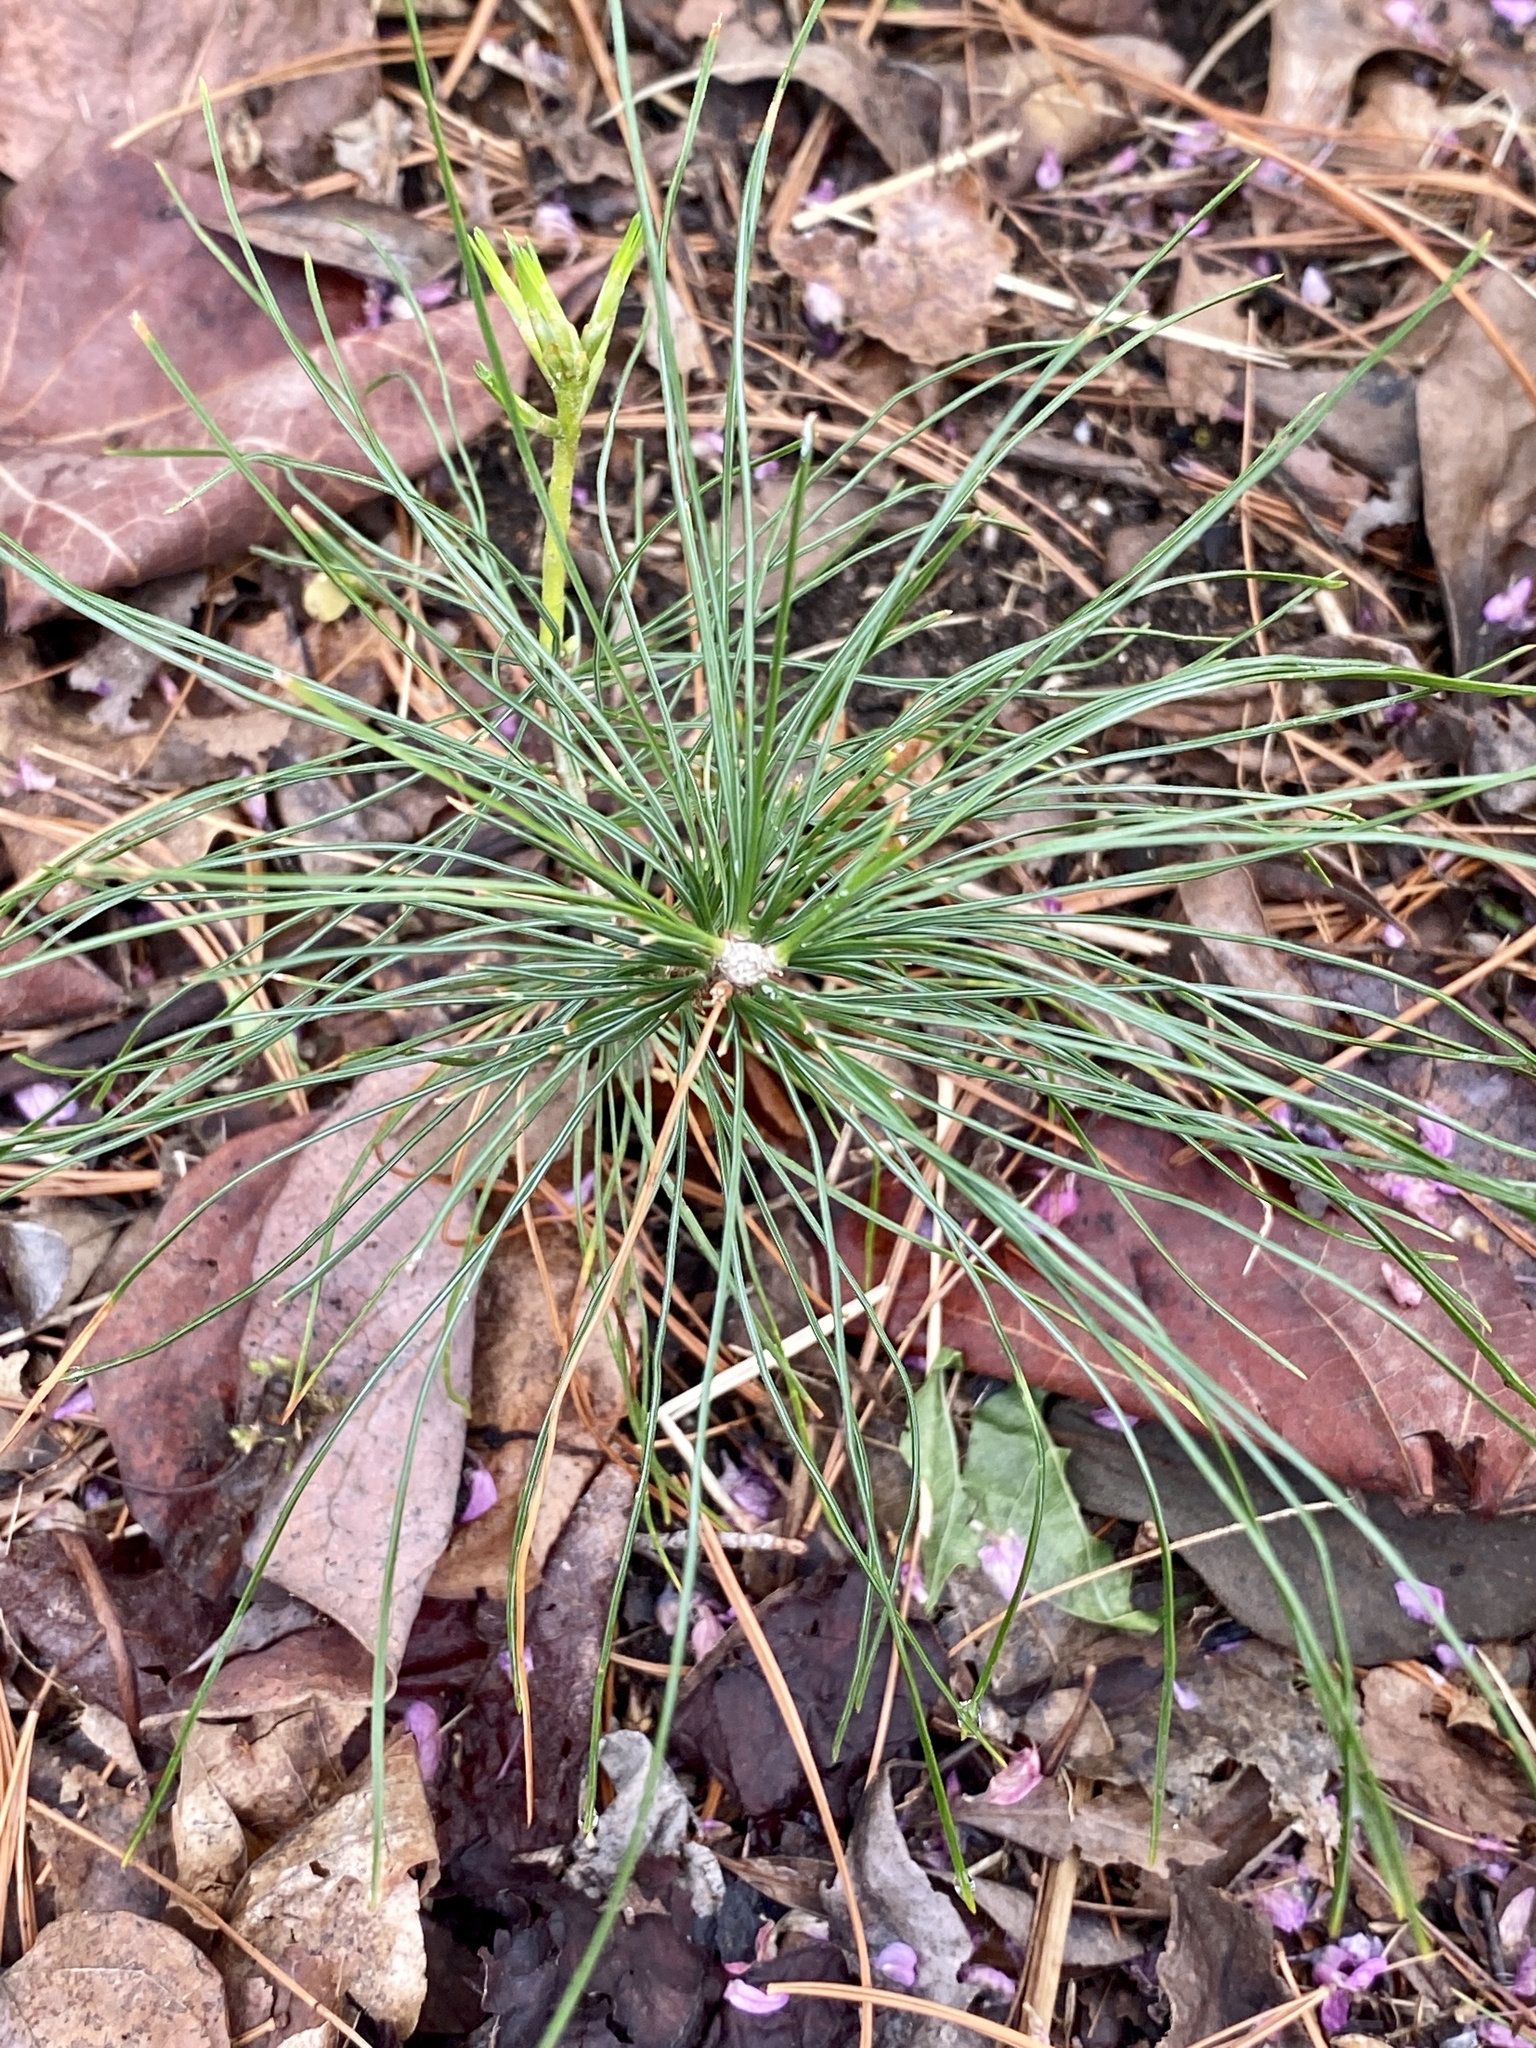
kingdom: Plantae
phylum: Tracheophyta
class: Pinopsida
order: Pinales
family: Pinaceae
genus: Pinus
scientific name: Pinus strobus
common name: Weymouth pine
